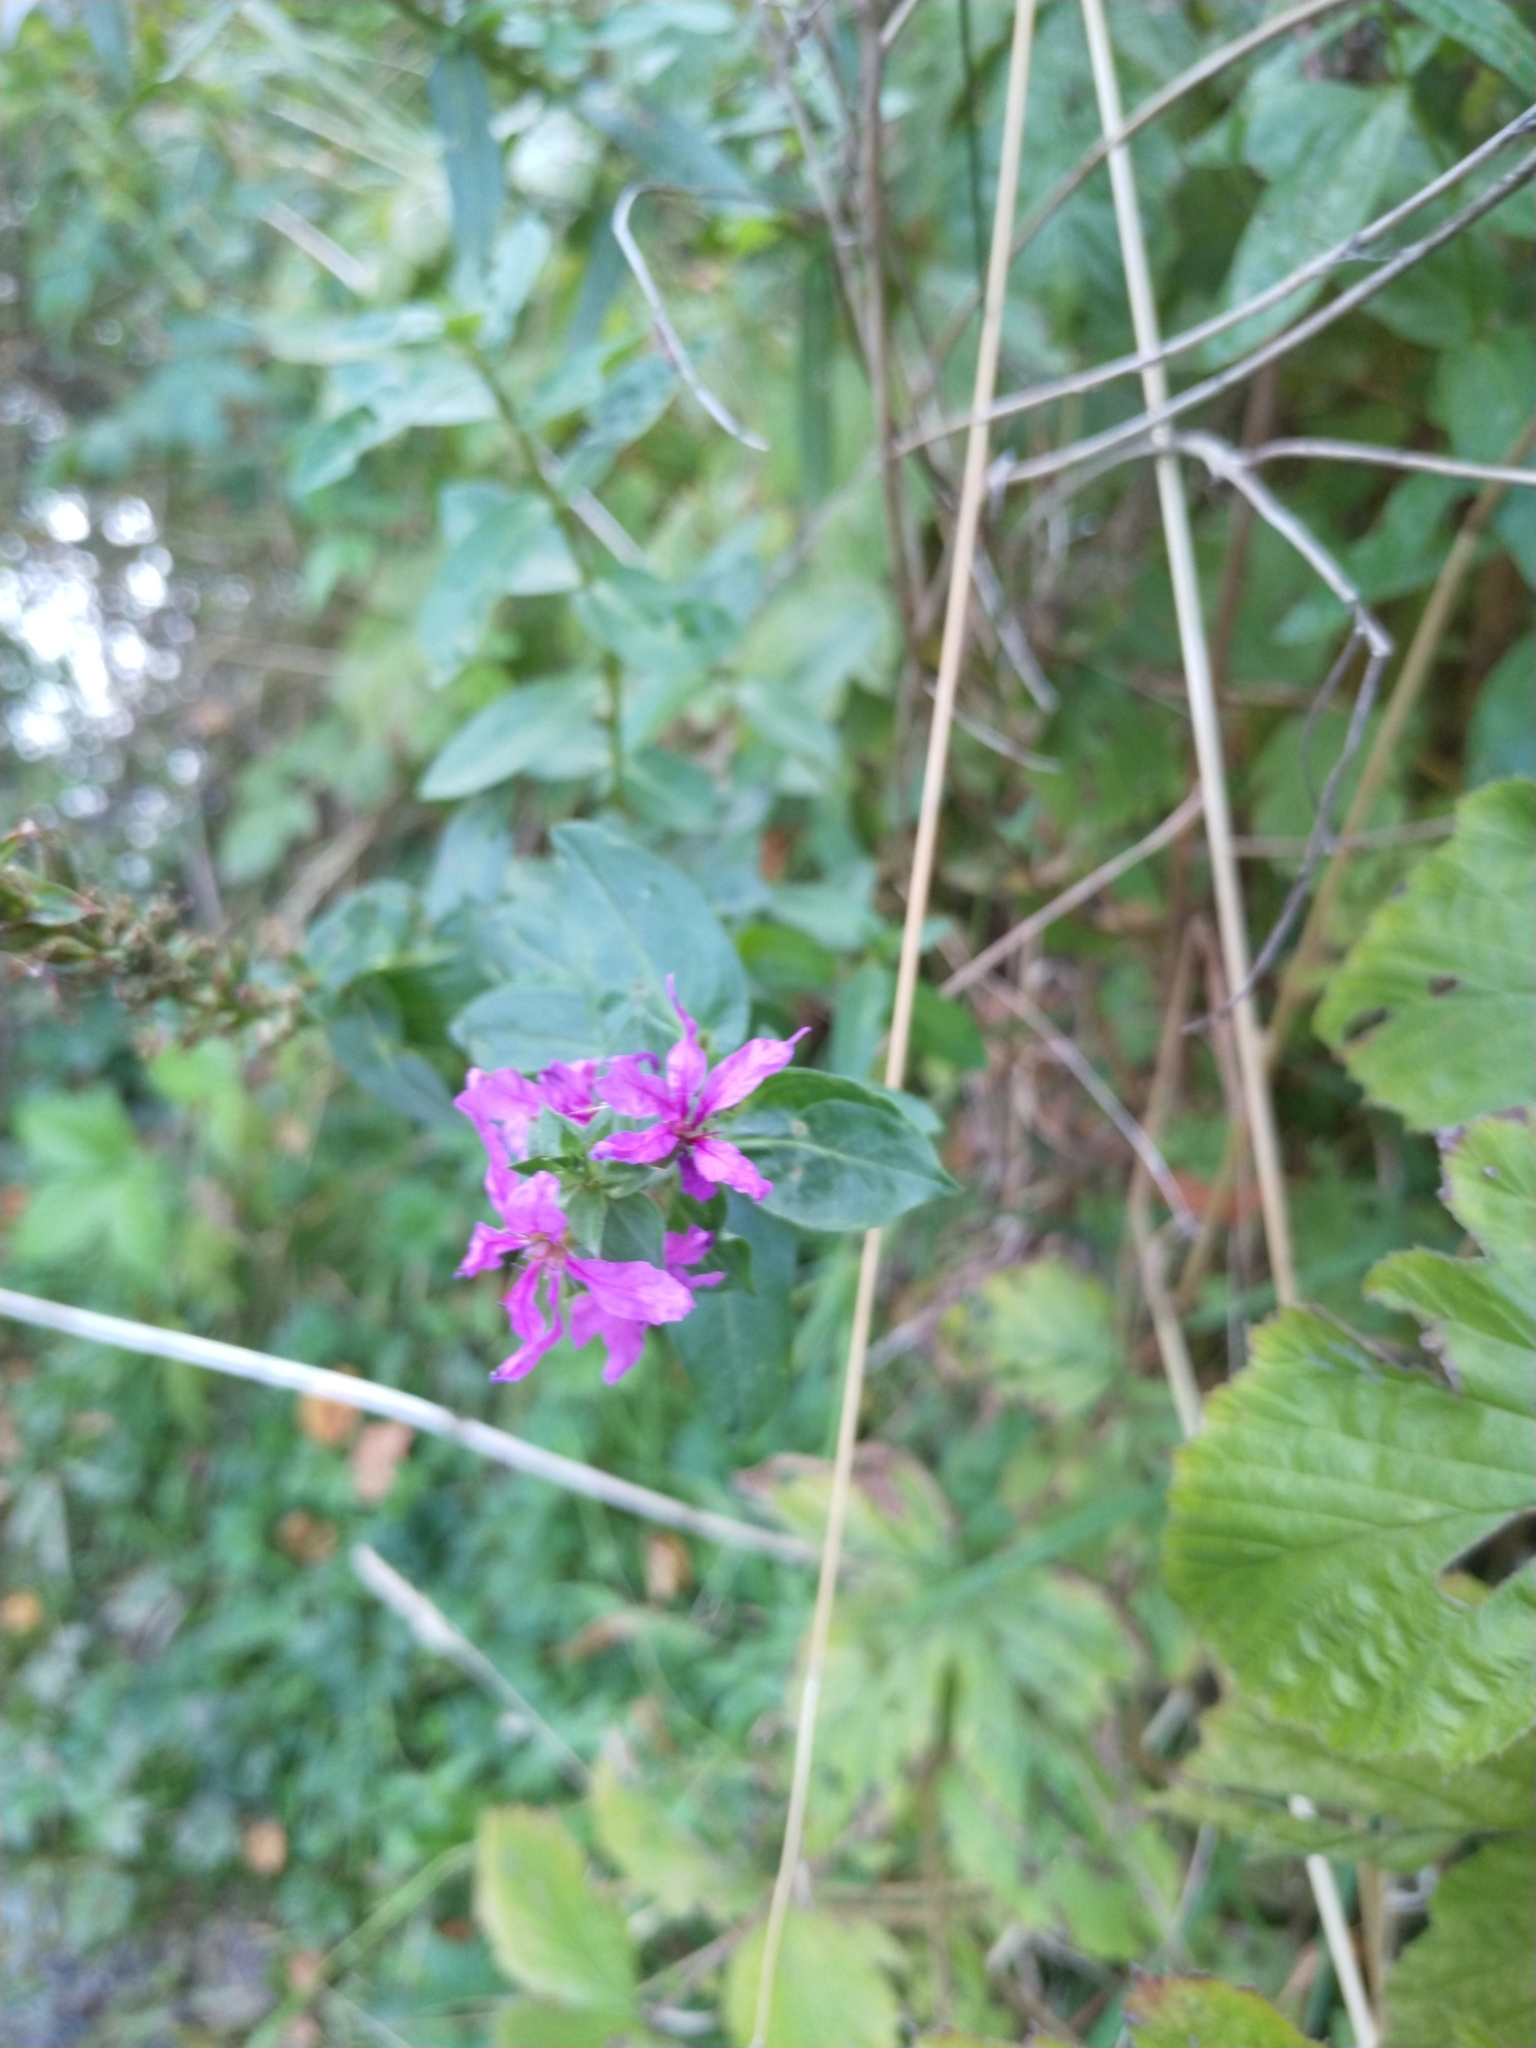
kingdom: Plantae
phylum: Tracheophyta
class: Magnoliopsida
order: Myrtales
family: Lythraceae
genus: Lythrum
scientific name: Lythrum salicaria
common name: Purple loosestrife
